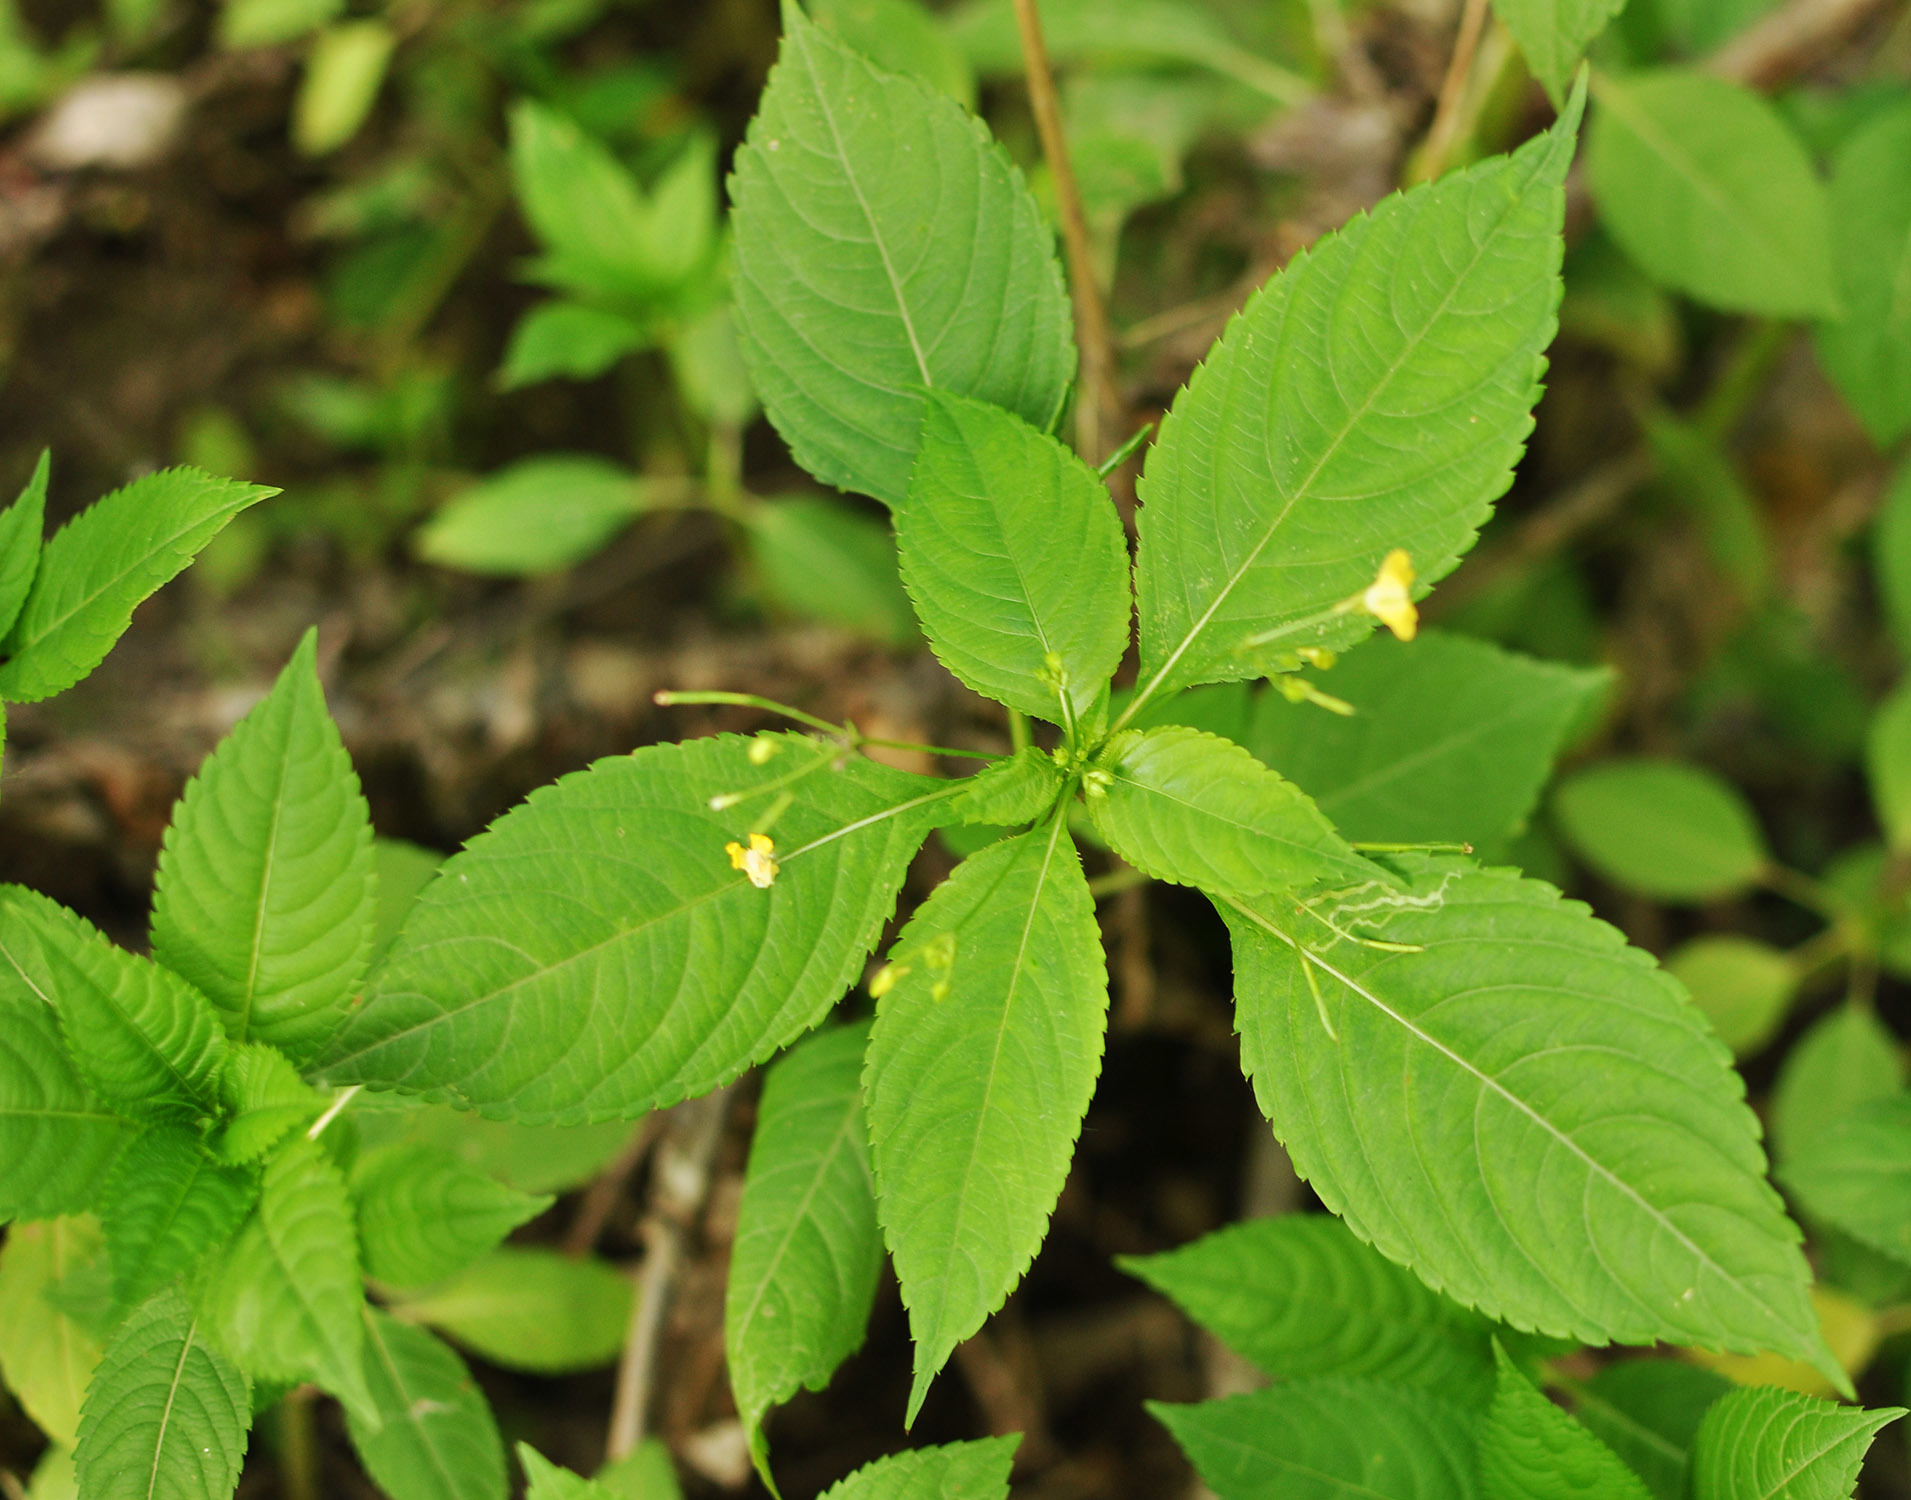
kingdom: Plantae
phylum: Tracheophyta
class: Magnoliopsida
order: Ericales
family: Balsaminaceae
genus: Impatiens
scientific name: Impatiens parviflora
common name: Small balsam
